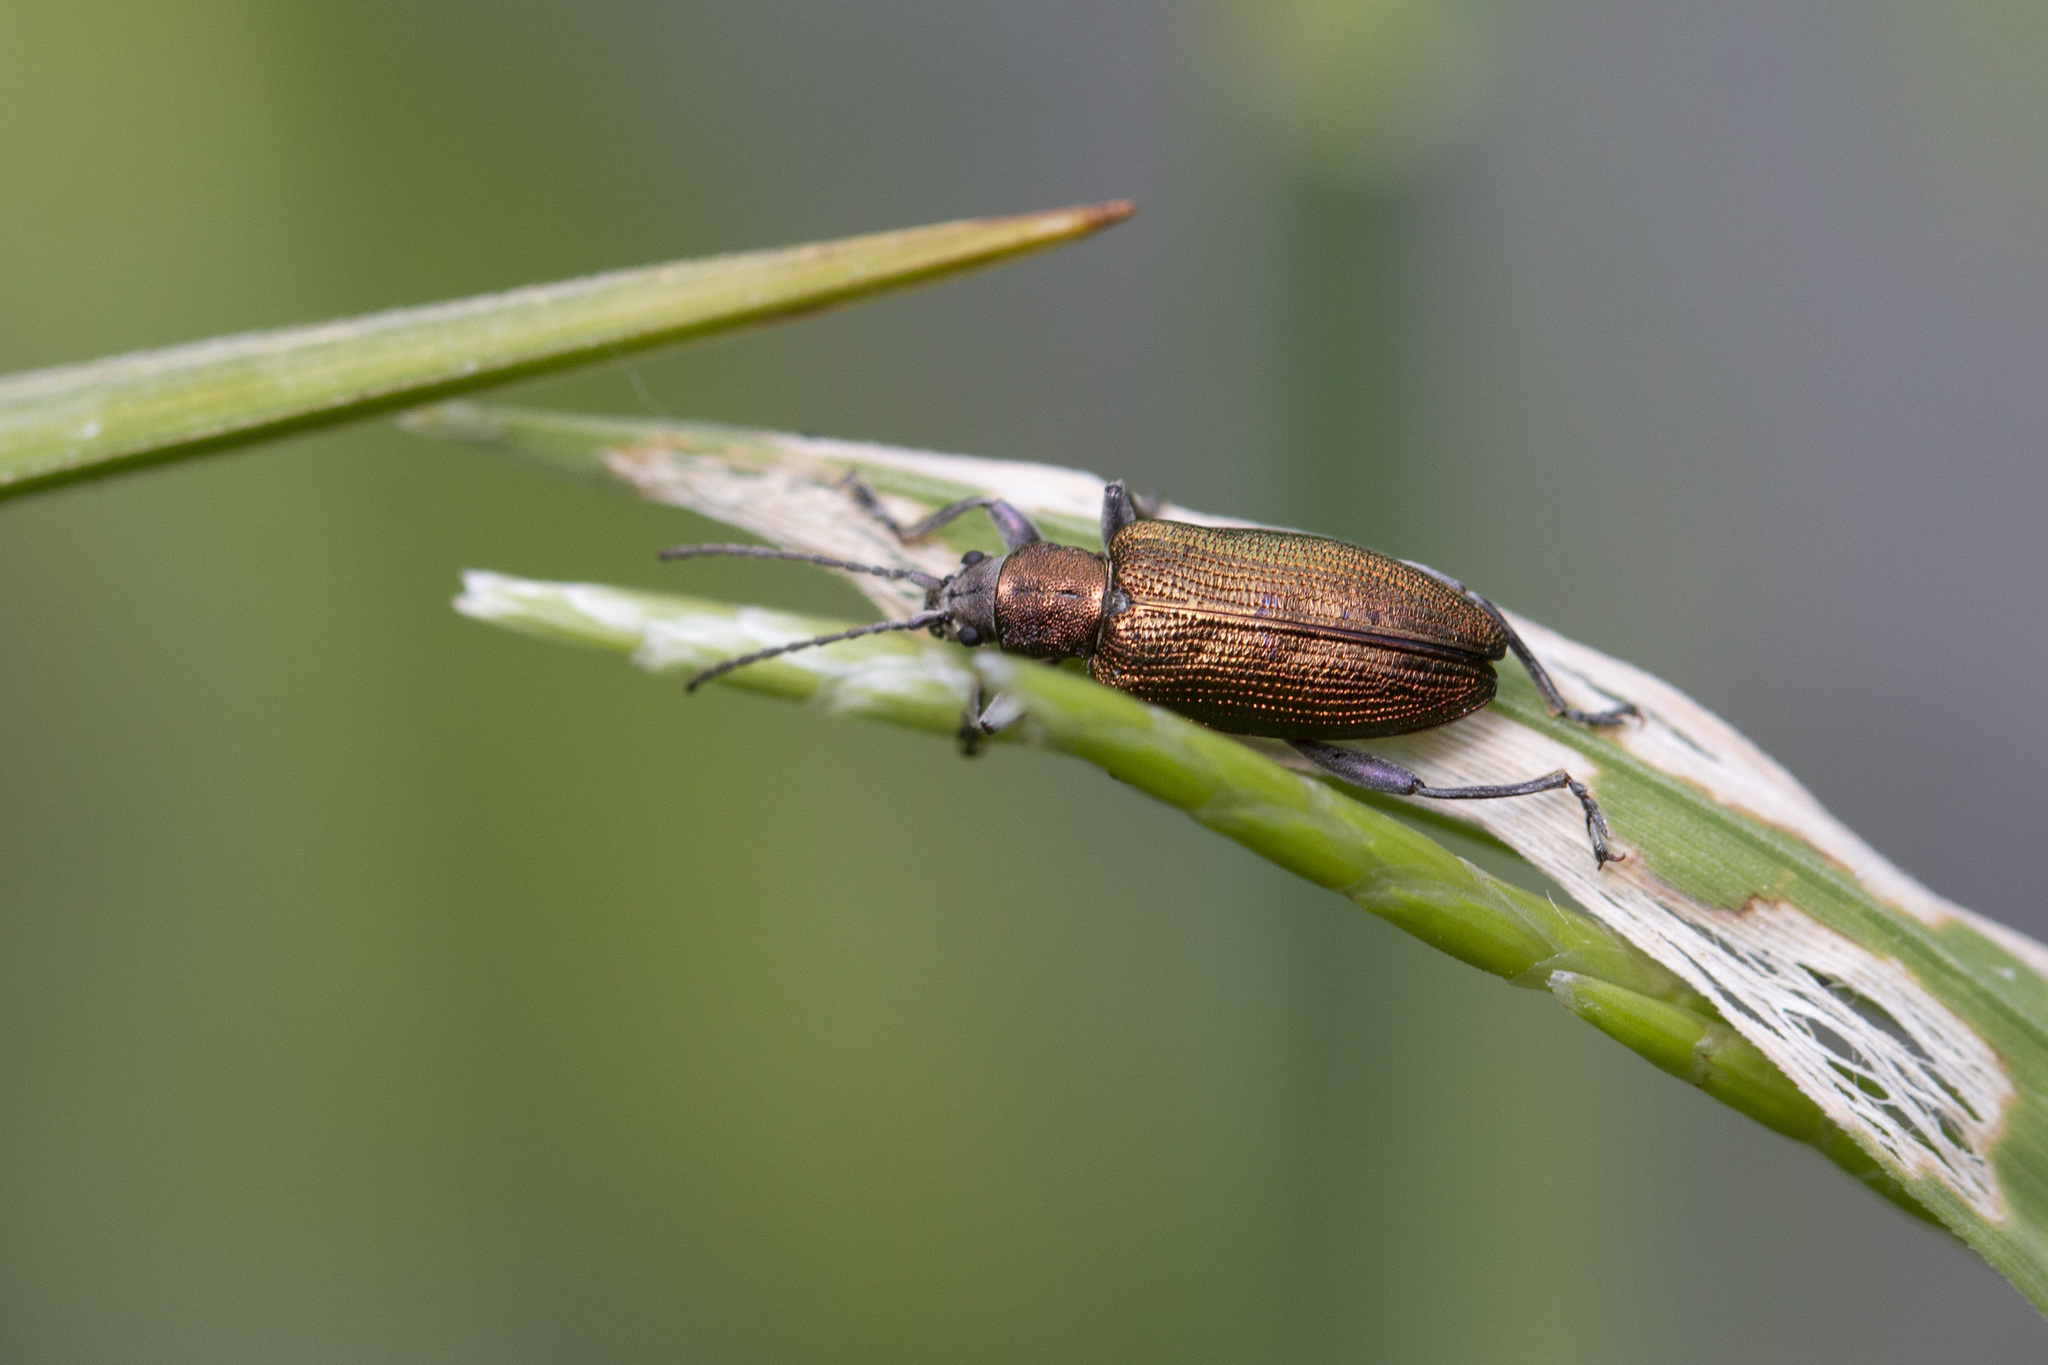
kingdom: Animalia
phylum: Arthropoda
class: Insecta
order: Coleoptera
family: Chrysomelidae
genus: Donacia
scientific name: Donacia semicuprea
